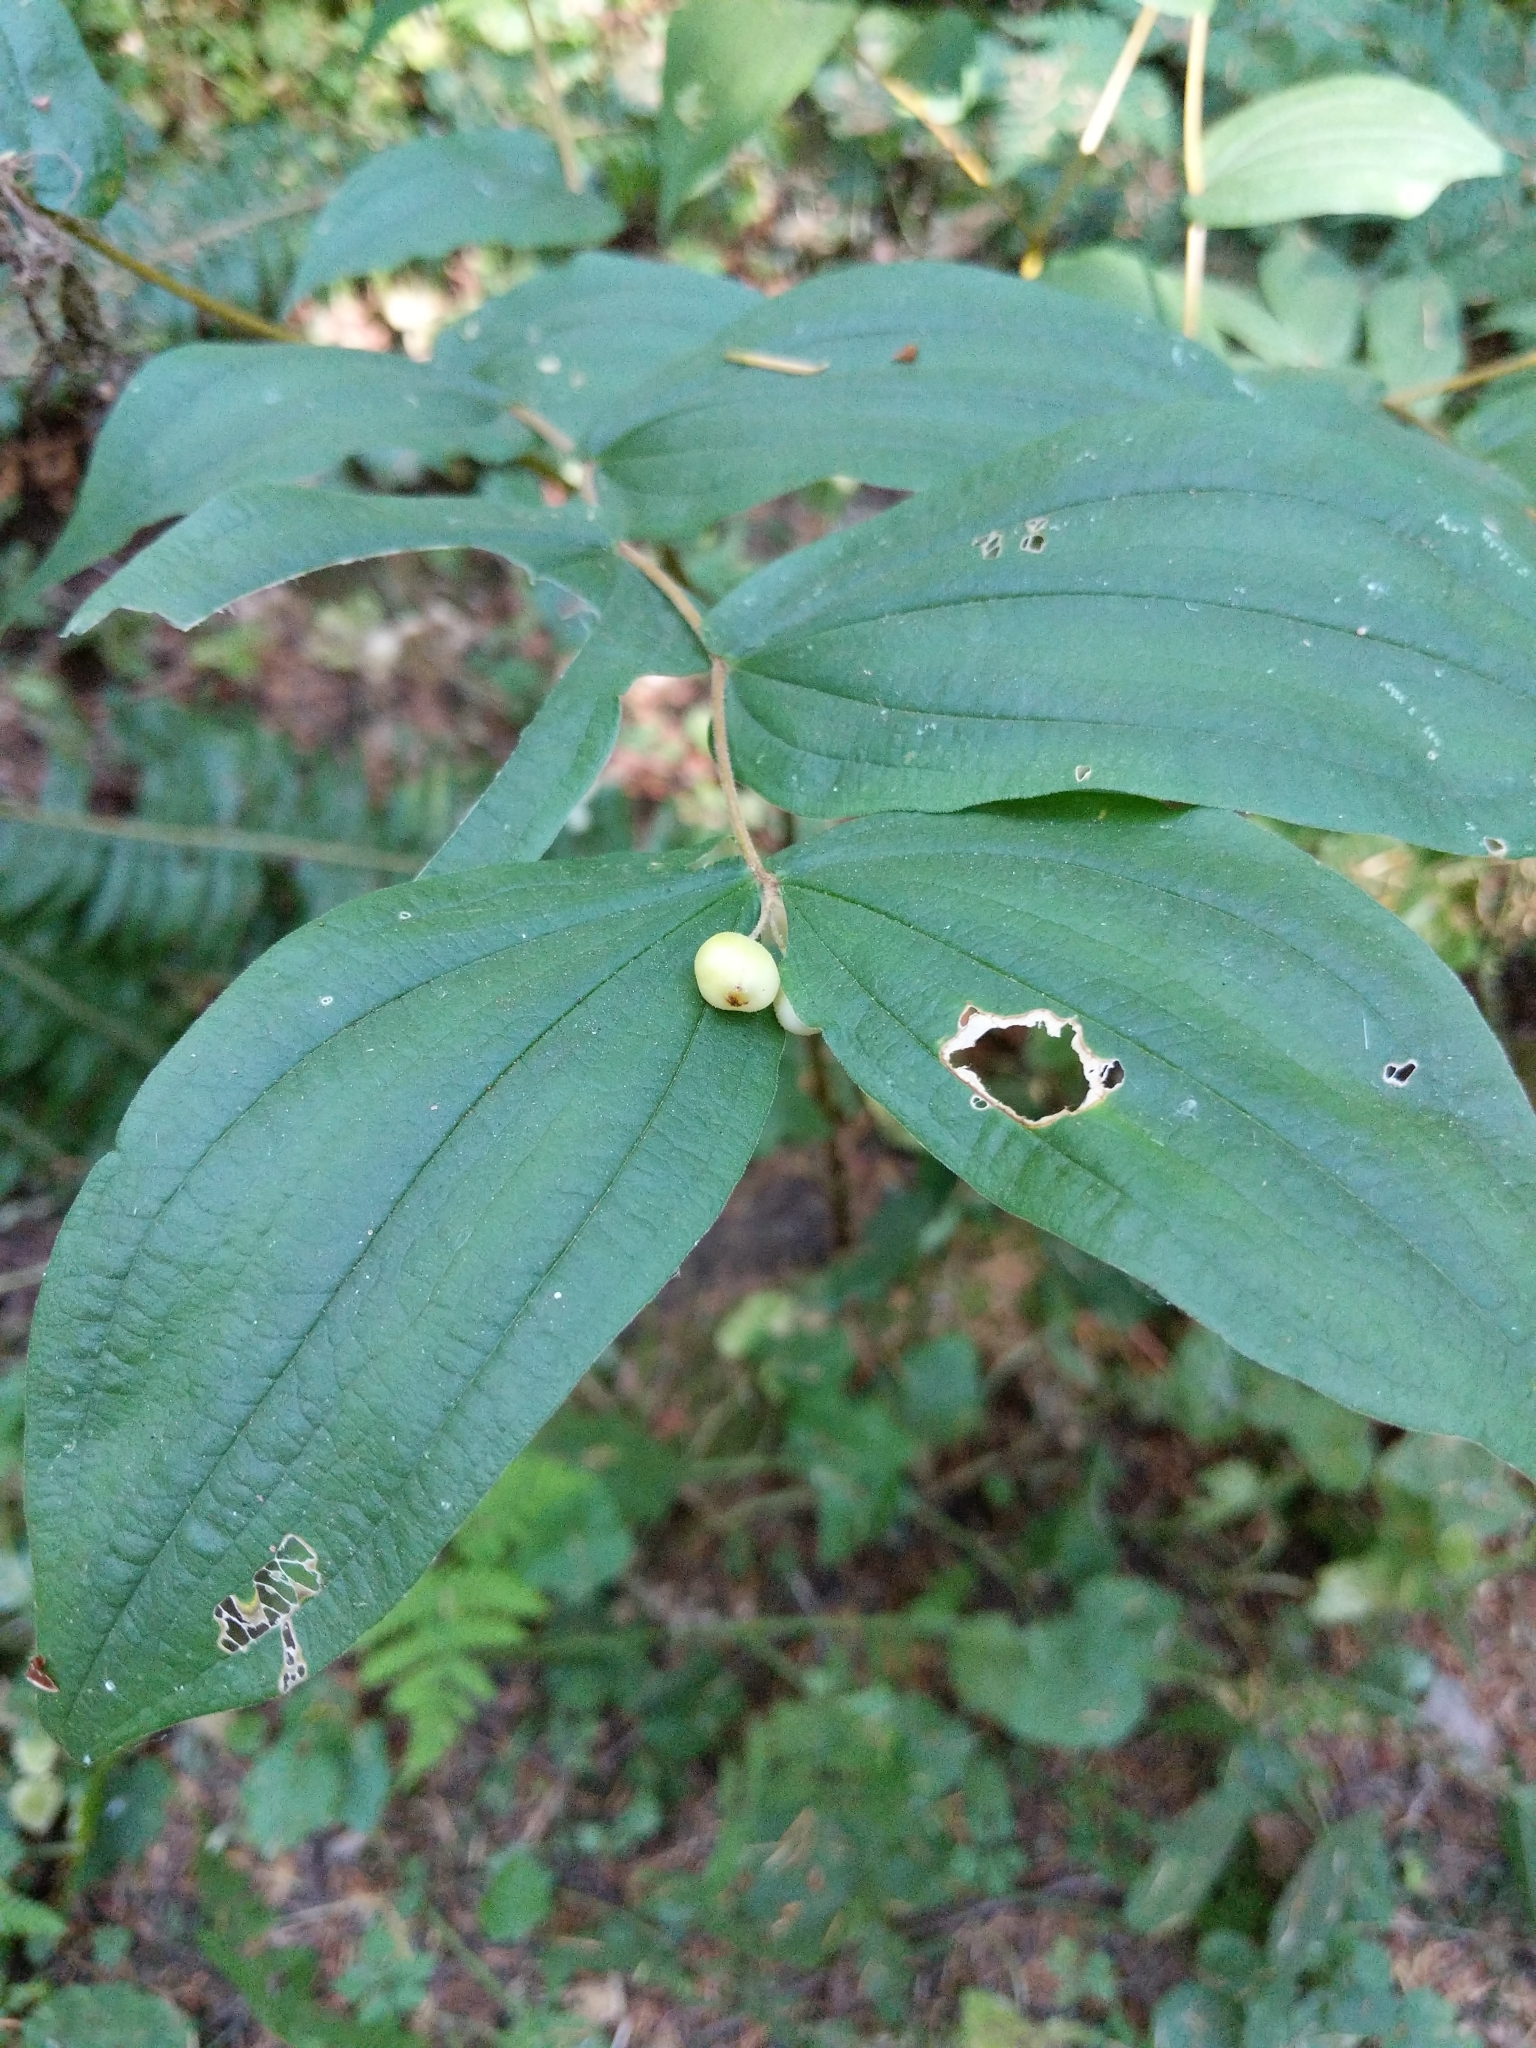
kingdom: Plantae
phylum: Tracheophyta
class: Liliopsida
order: Liliales
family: Liliaceae
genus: Prosartes
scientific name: Prosartes hookeri
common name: Fairy-bells
